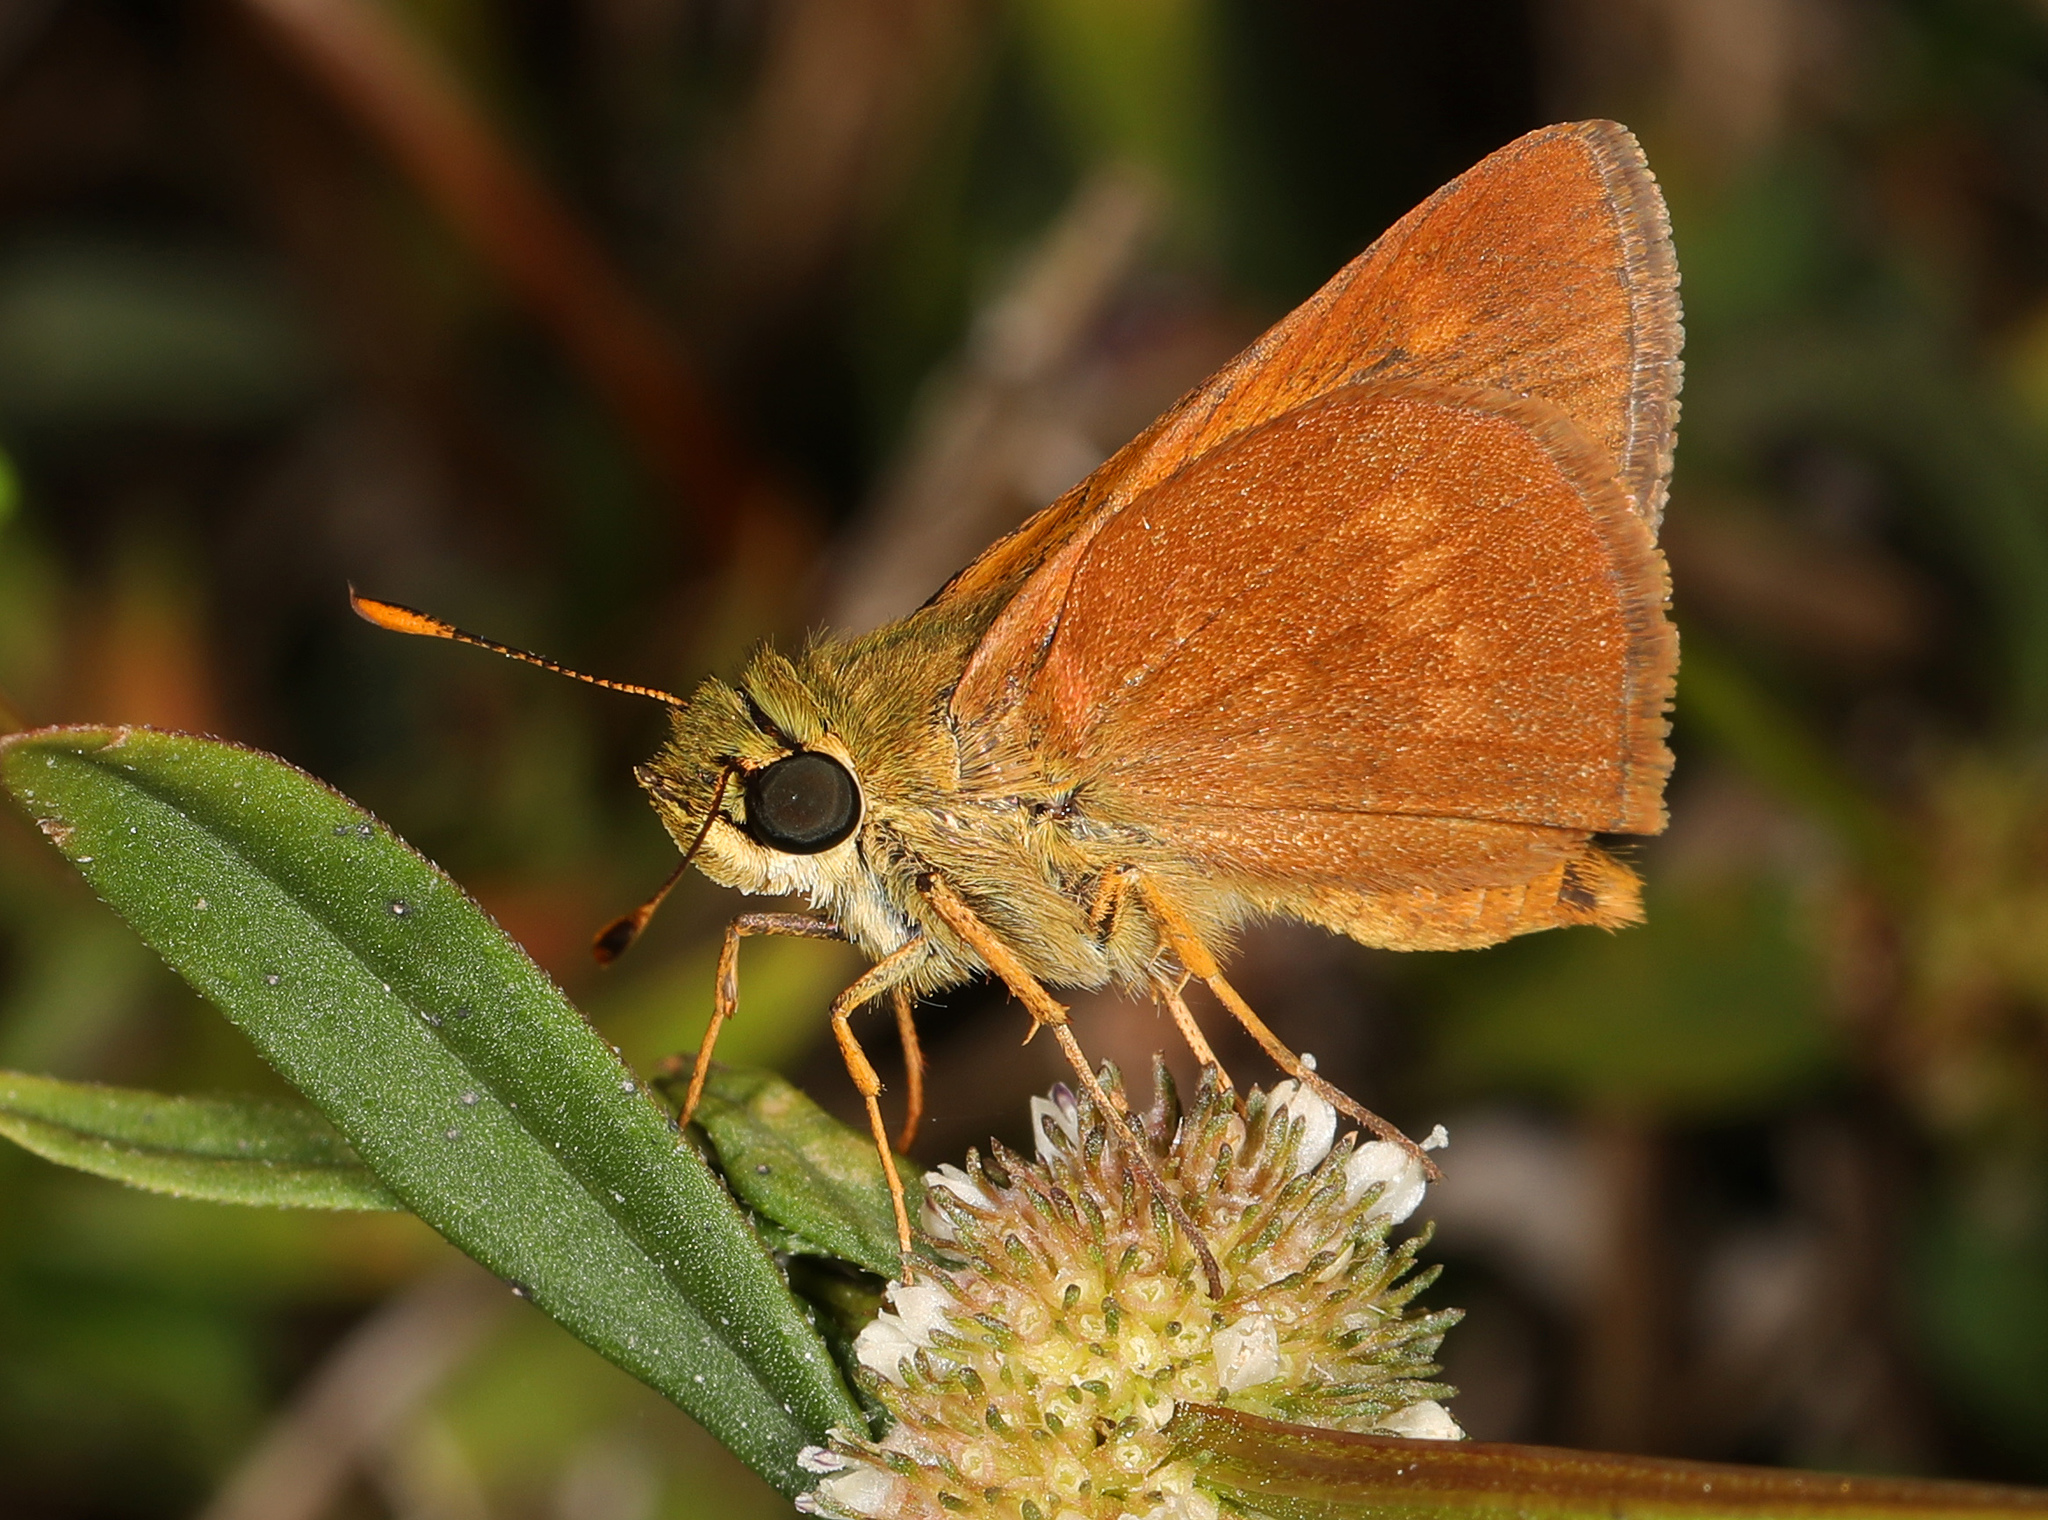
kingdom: Animalia
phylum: Arthropoda
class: Insecta
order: Lepidoptera
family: Hesperiidae
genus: Polites
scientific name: Polites otho
